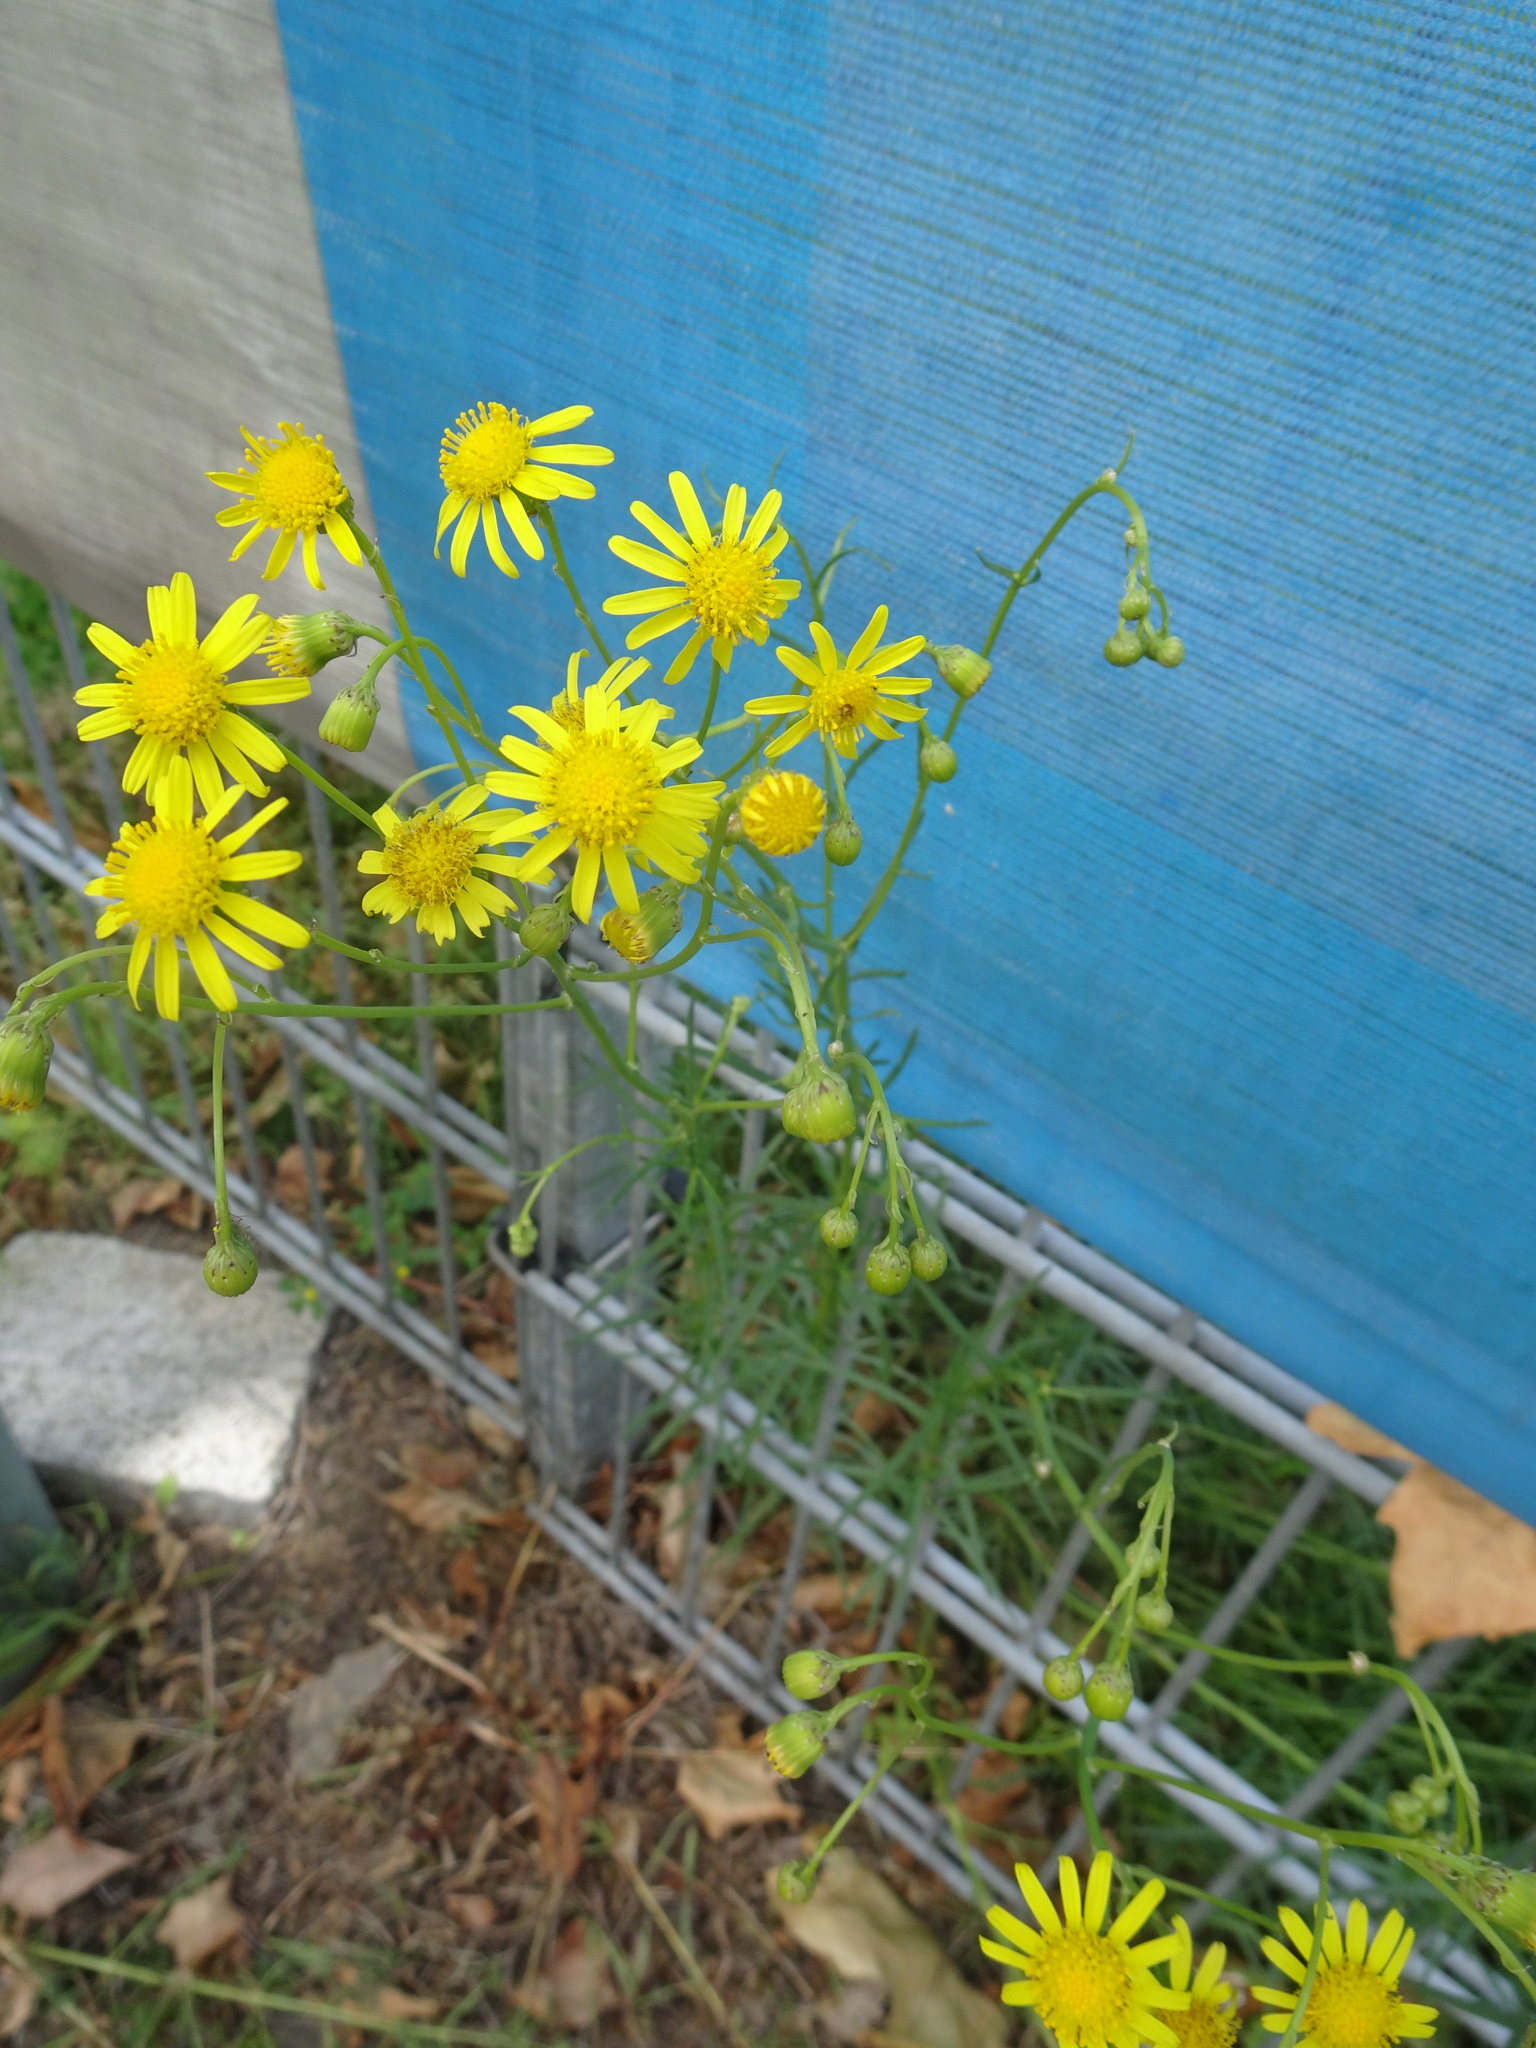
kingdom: Plantae
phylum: Tracheophyta
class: Magnoliopsida
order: Asterales
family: Asteraceae
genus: Senecio
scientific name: Senecio inaequidens
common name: Narrow-leaved ragwort
